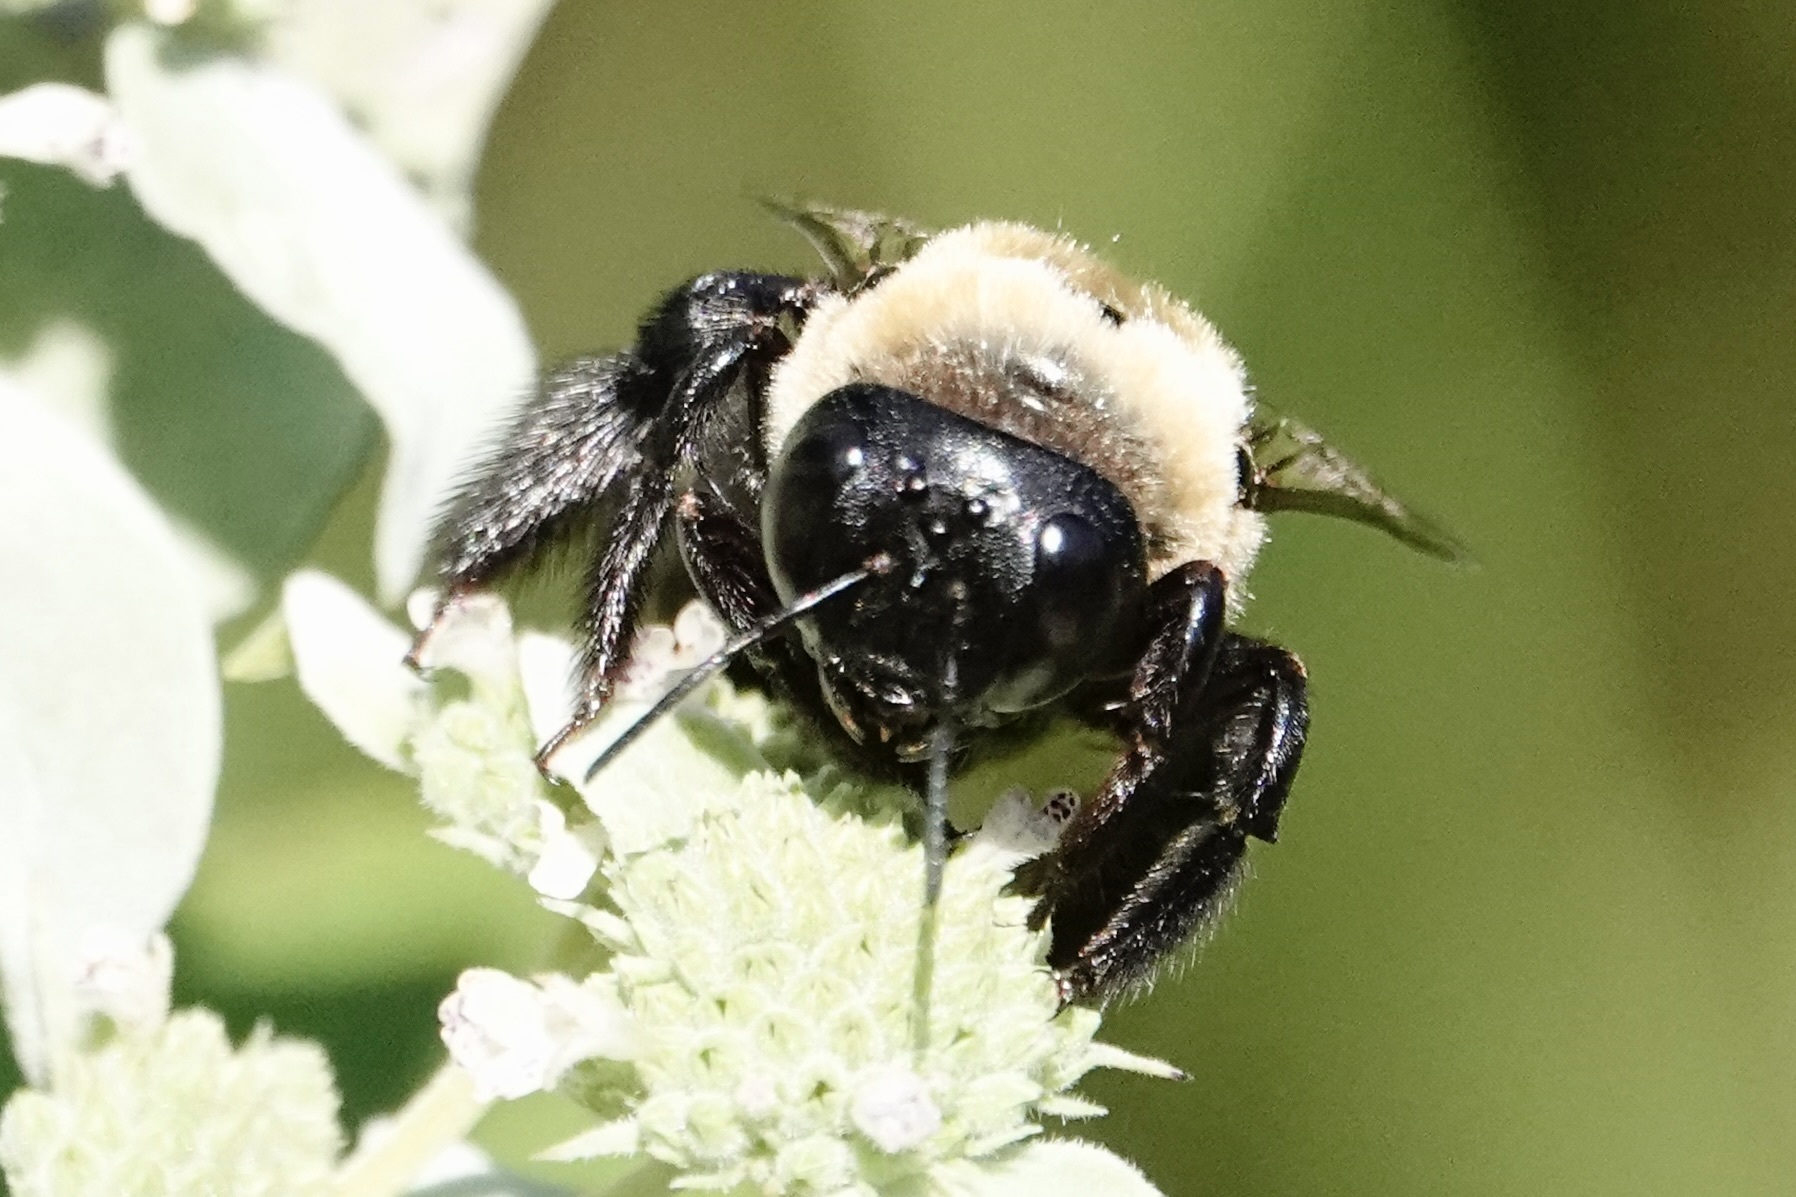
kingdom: Animalia
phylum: Arthropoda
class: Insecta
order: Hymenoptera
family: Apidae
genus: Xylocopa
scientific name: Xylocopa virginica
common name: Carpenter bee
